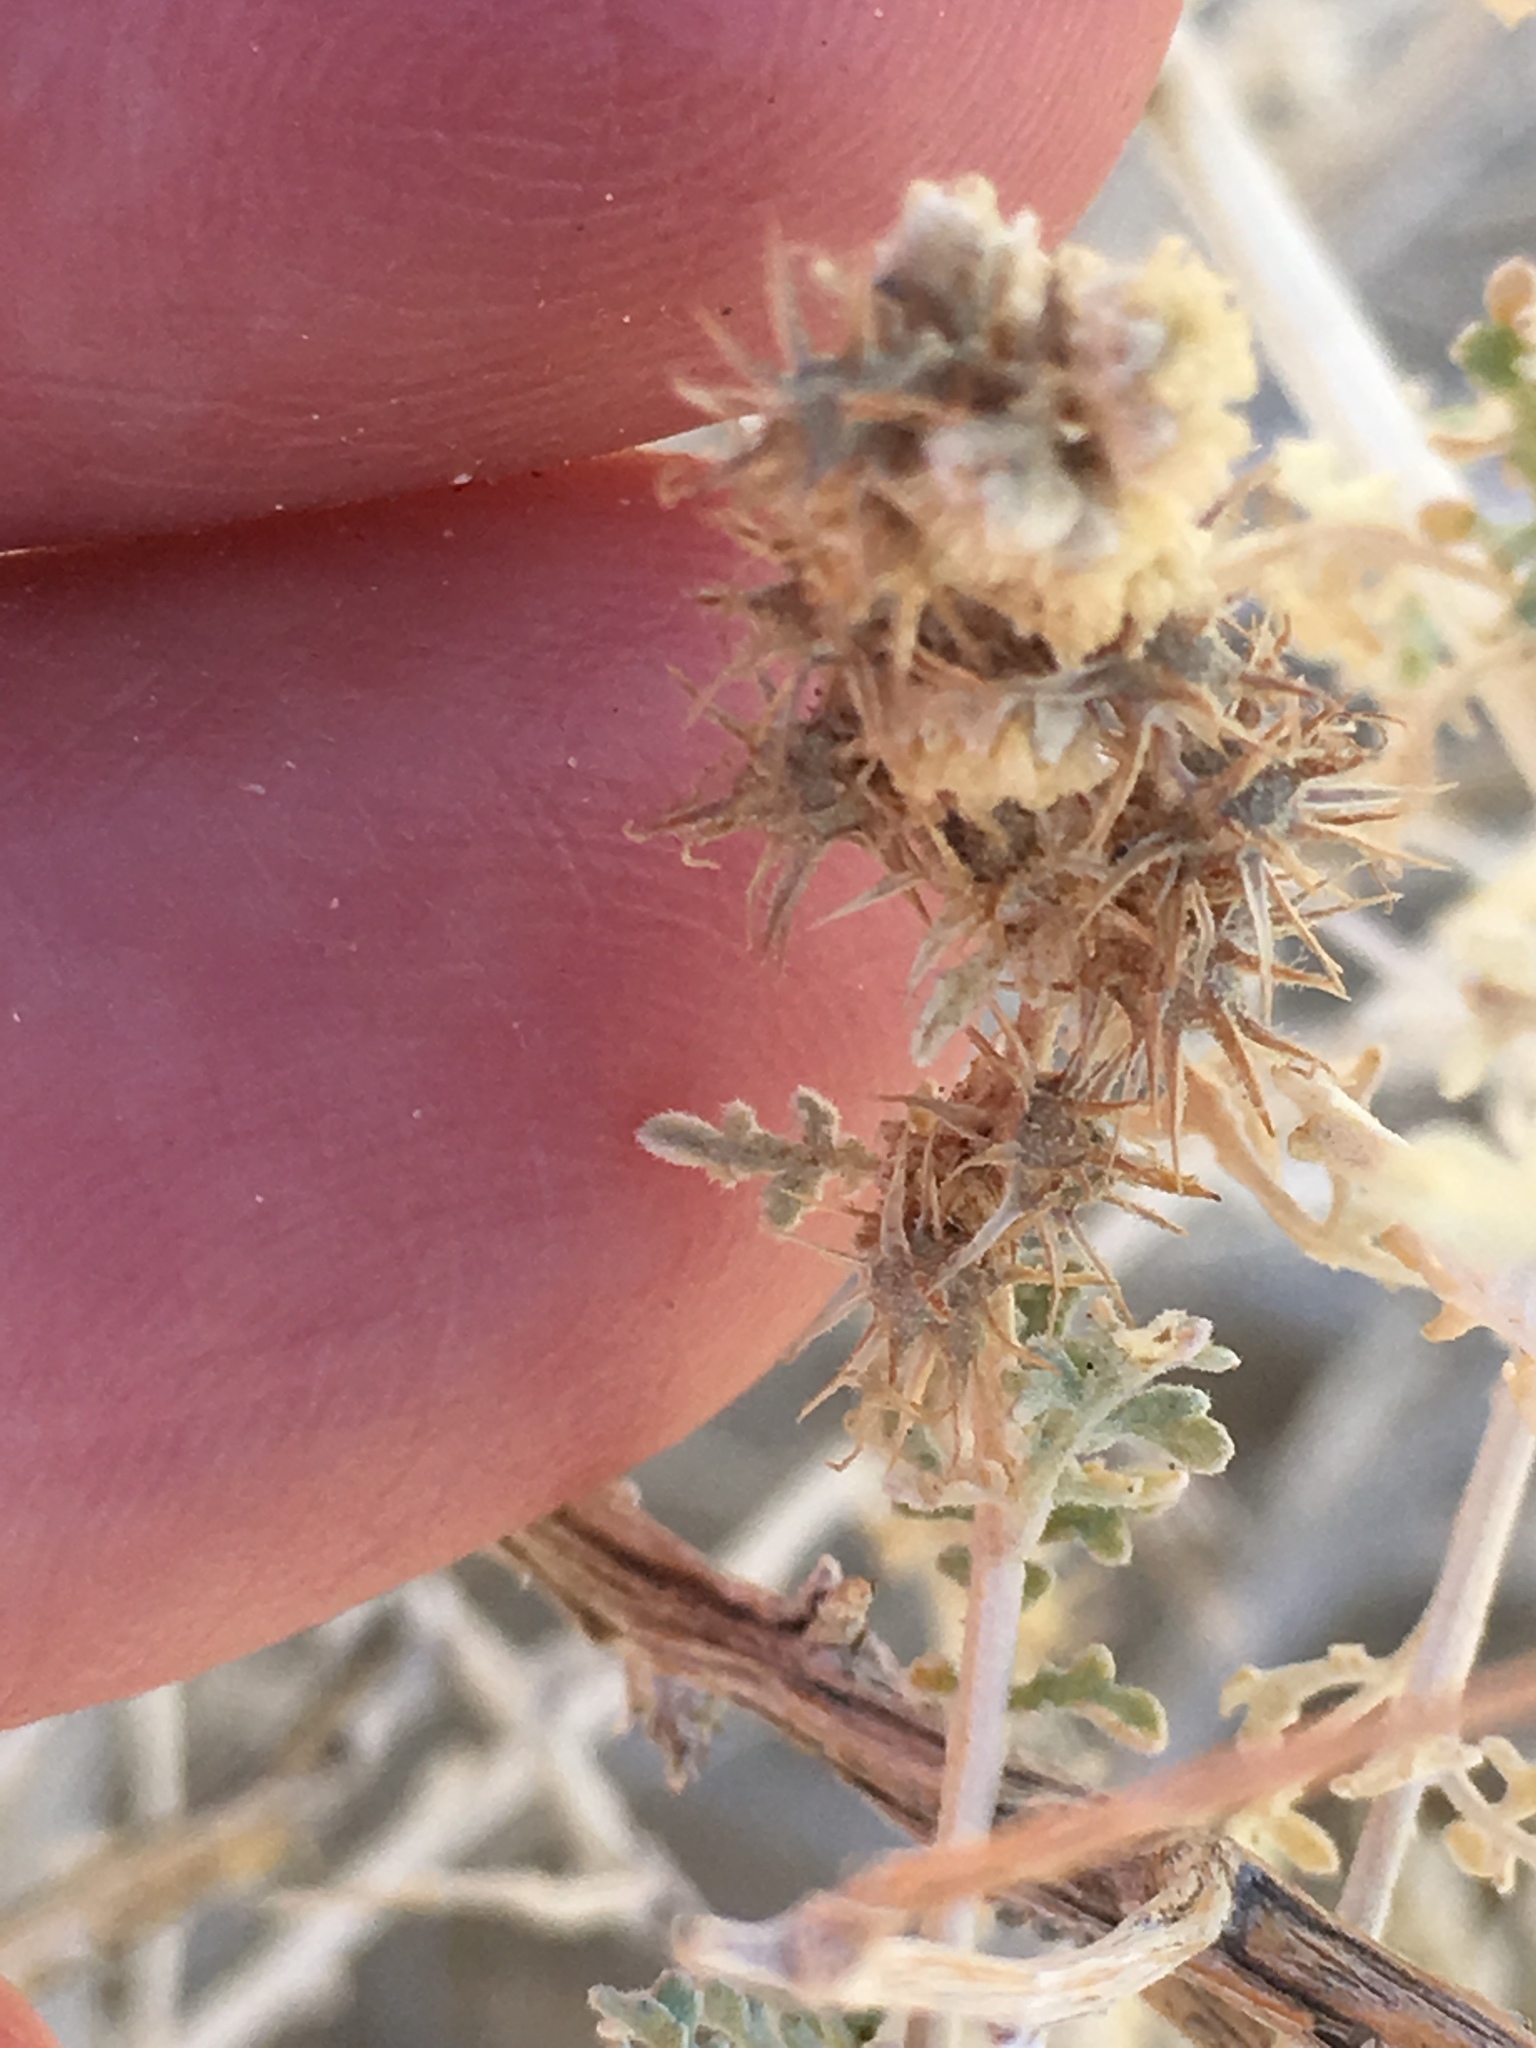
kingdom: Plantae
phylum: Tracheophyta
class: Magnoliopsida
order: Asterales
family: Asteraceae
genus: Ambrosia
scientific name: Ambrosia dumosa
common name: Bur-sage
